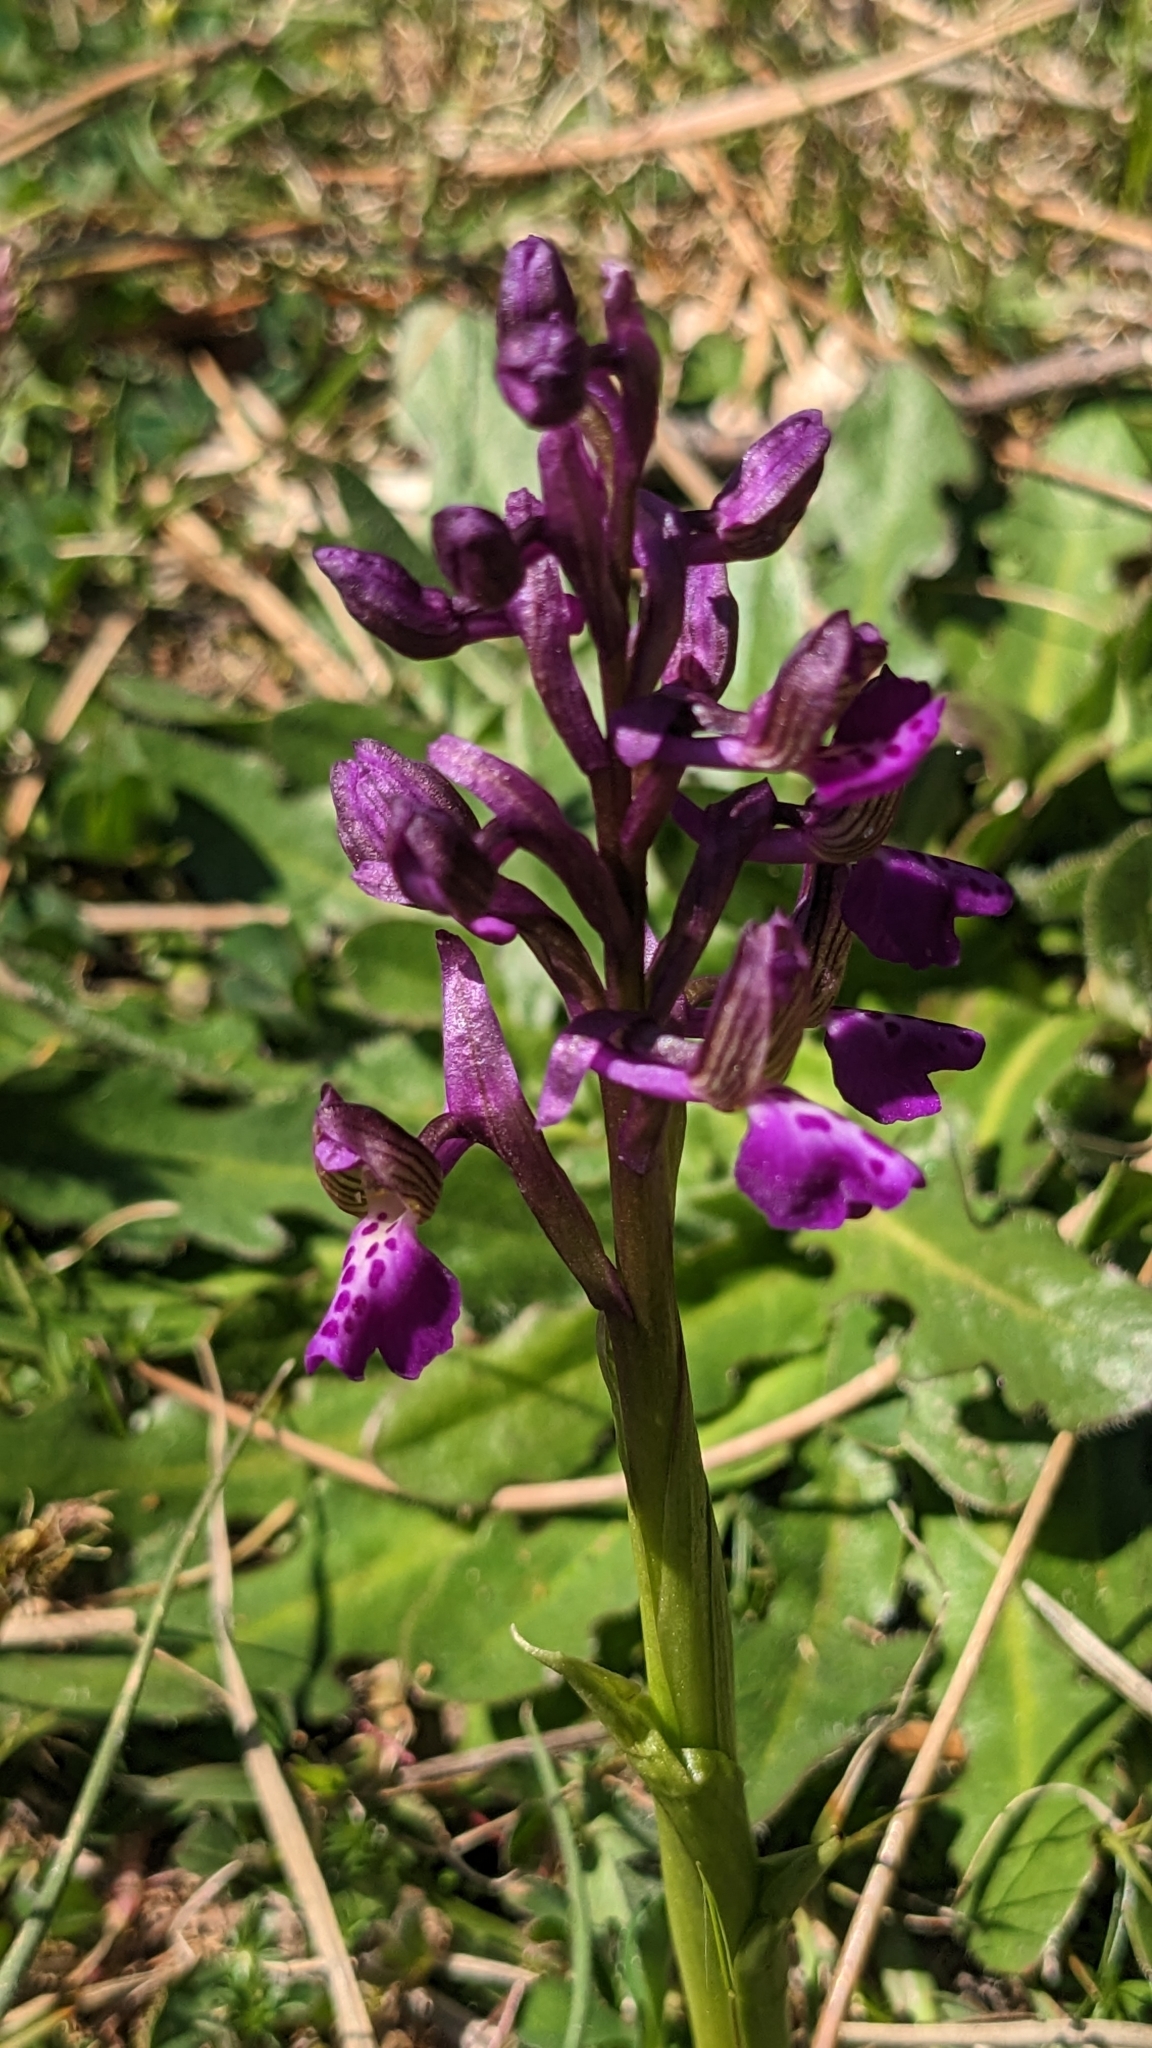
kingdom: Plantae
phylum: Tracheophyta
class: Liliopsida
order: Asparagales
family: Orchidaceae
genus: Anacamptis
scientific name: Anacamptis morio
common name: Green-winged orchid
